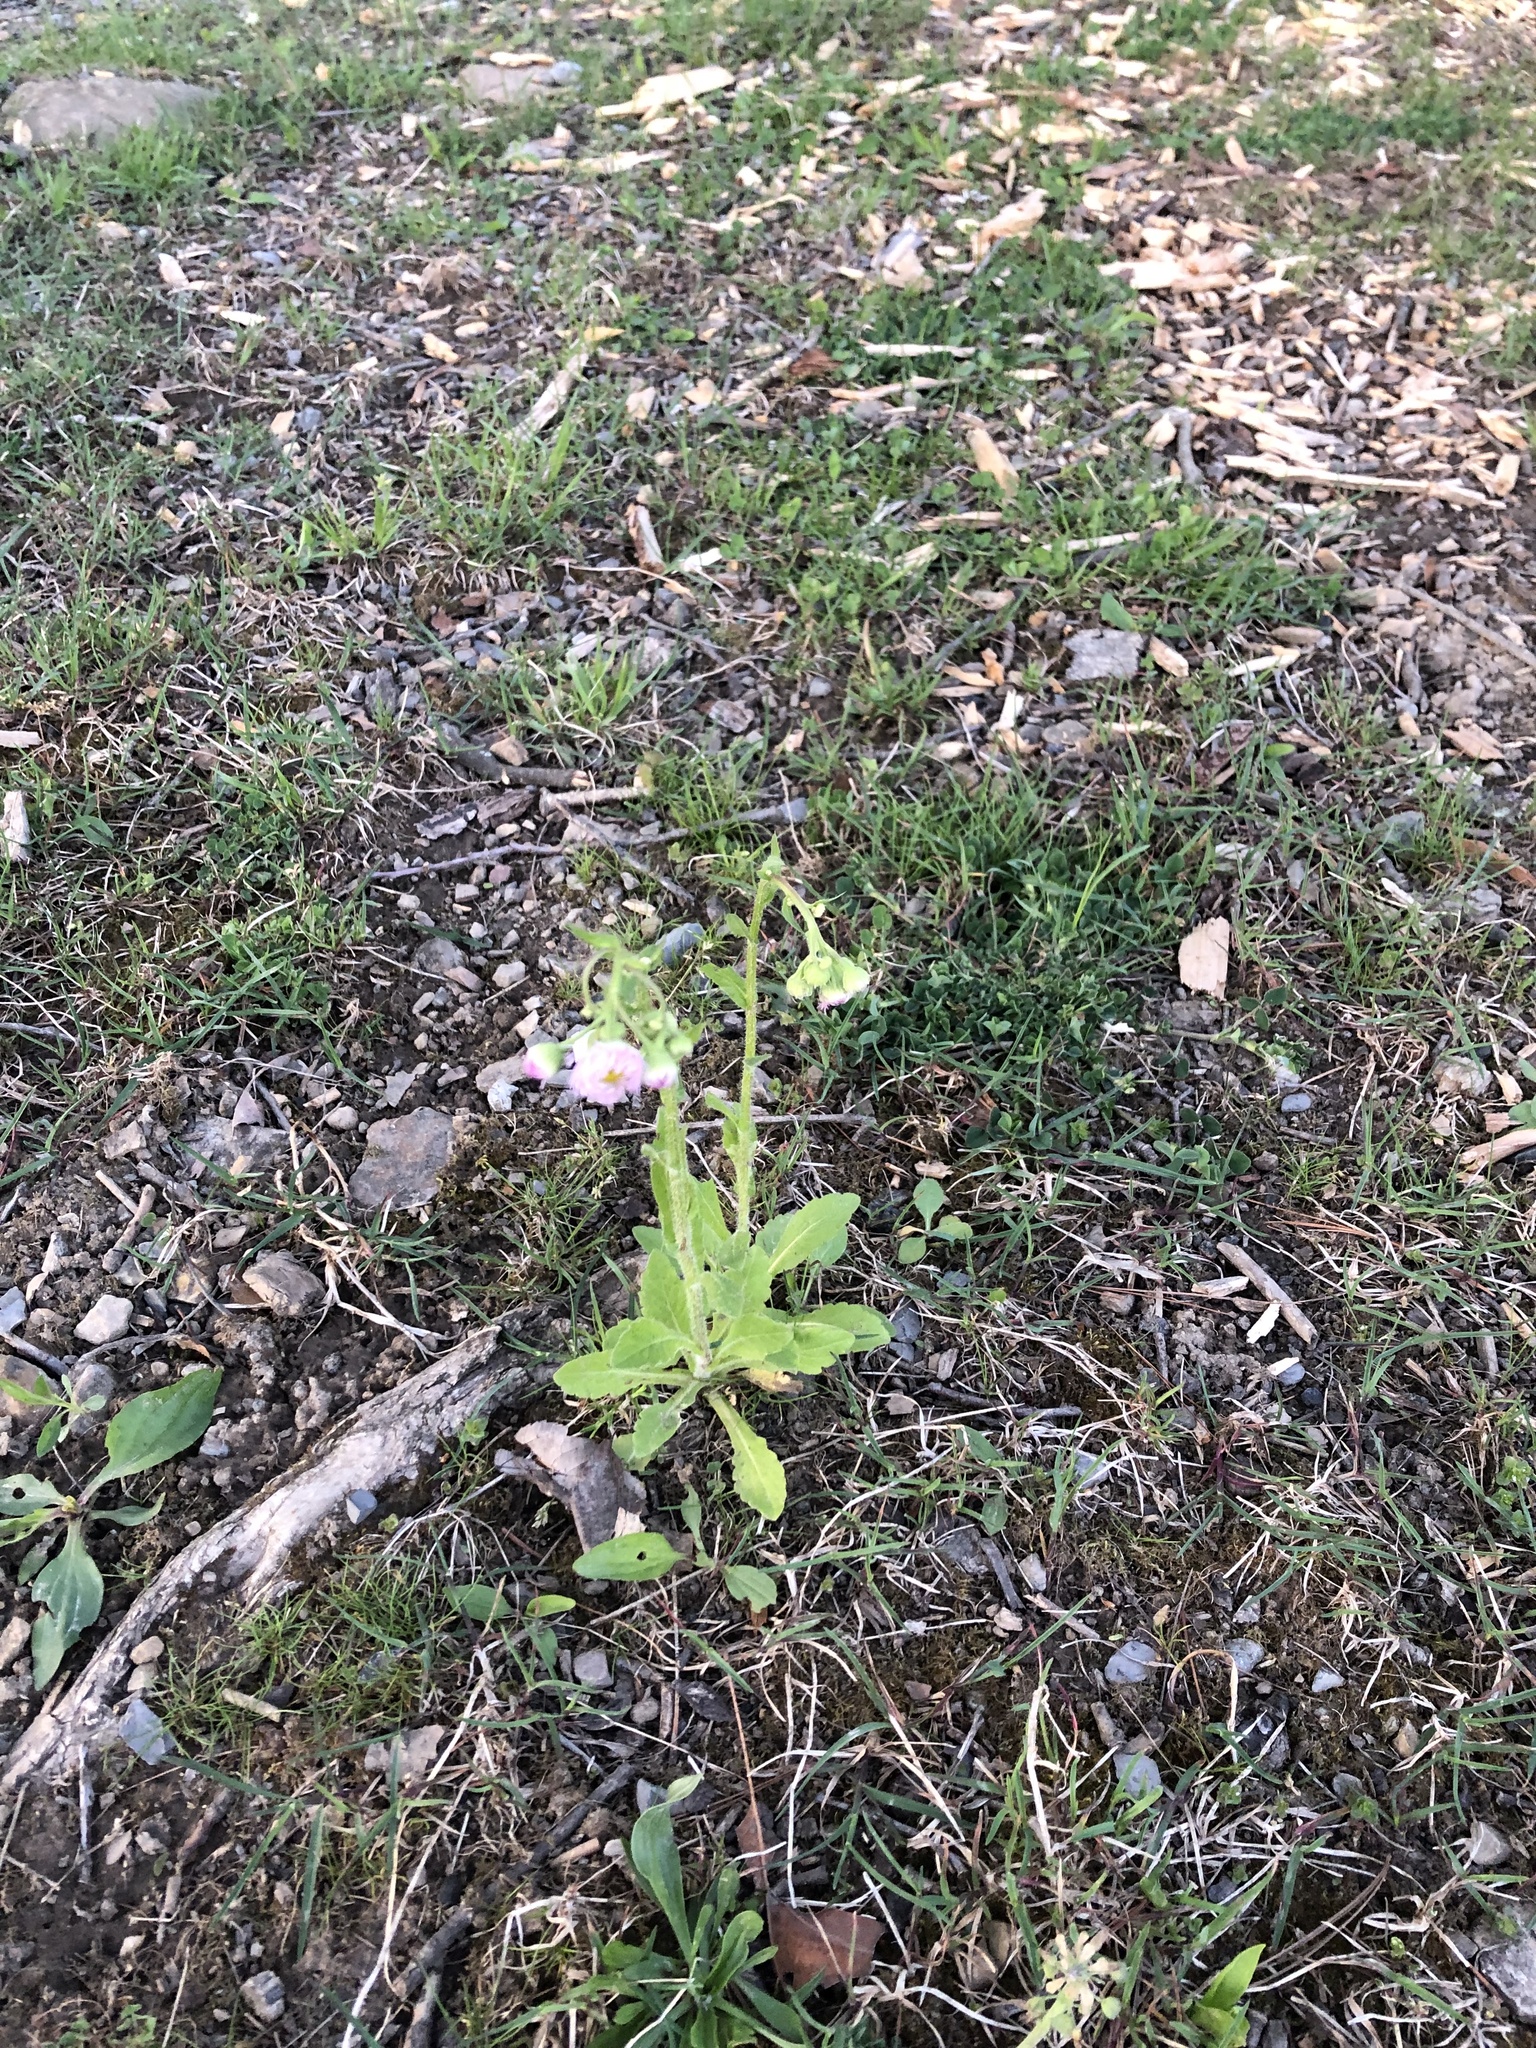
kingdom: Plantae
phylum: Tracheophyta
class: Magnoliopsida
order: Asterales
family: Asteraceae
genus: Erigeron
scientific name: Erigeron philadelphicus
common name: Robin's-plantain
